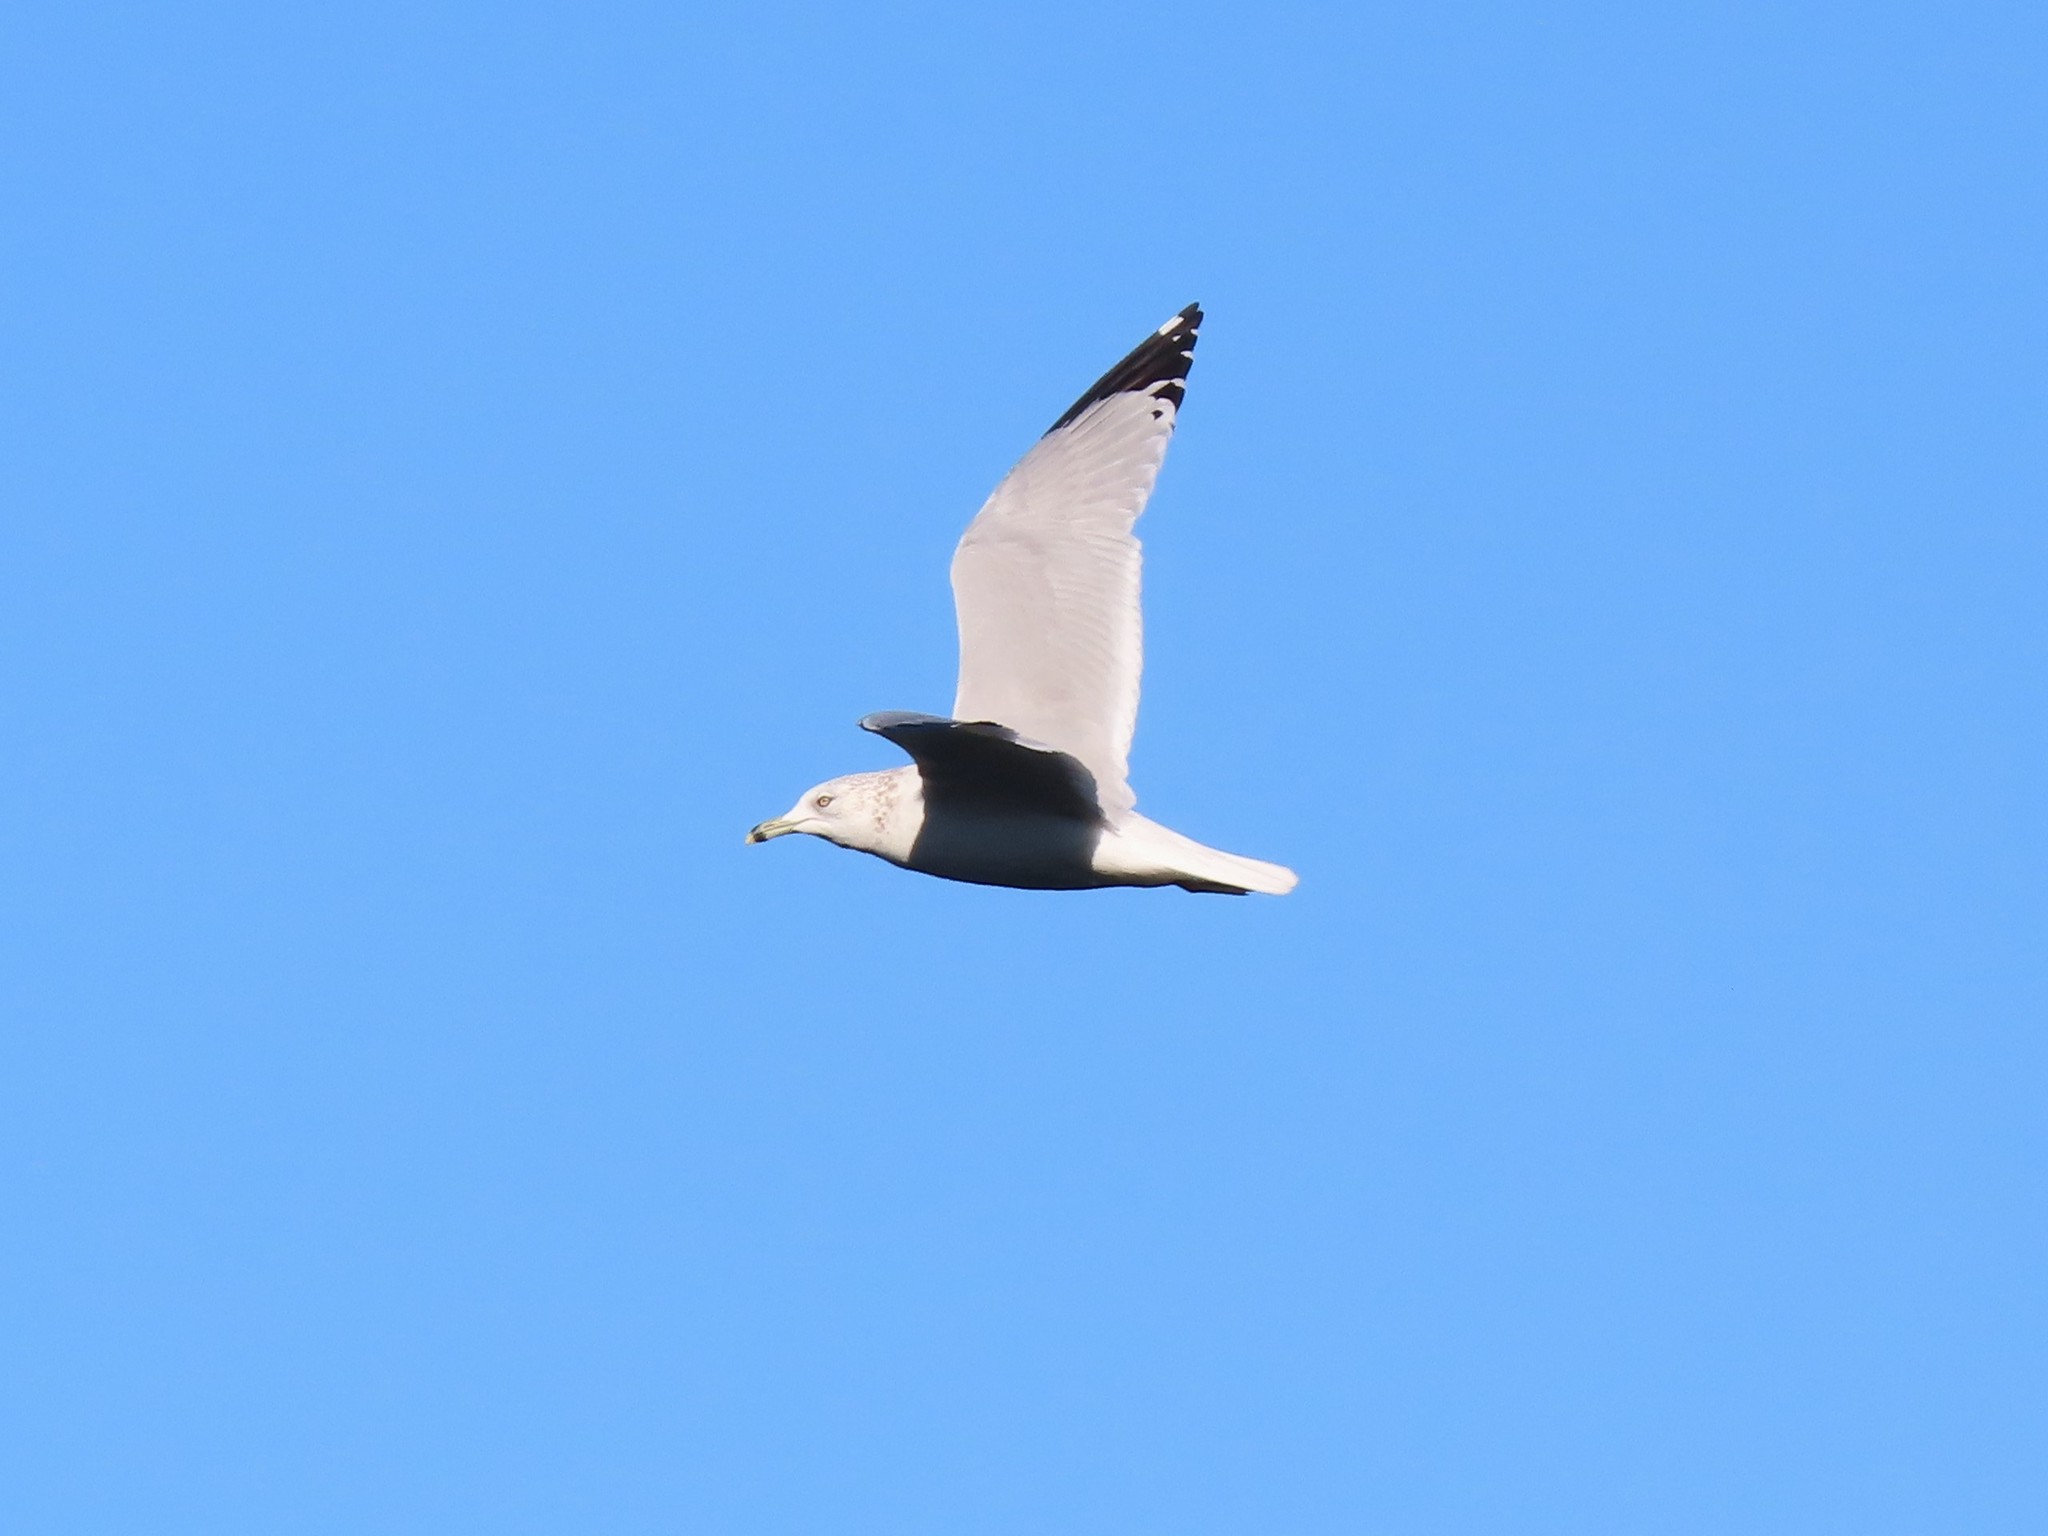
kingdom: Animalia
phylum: Chordata
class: Aves
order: Charadriiformes
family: Laridae
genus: Larus
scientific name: Larus delawarensis
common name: Ring-billed gull
